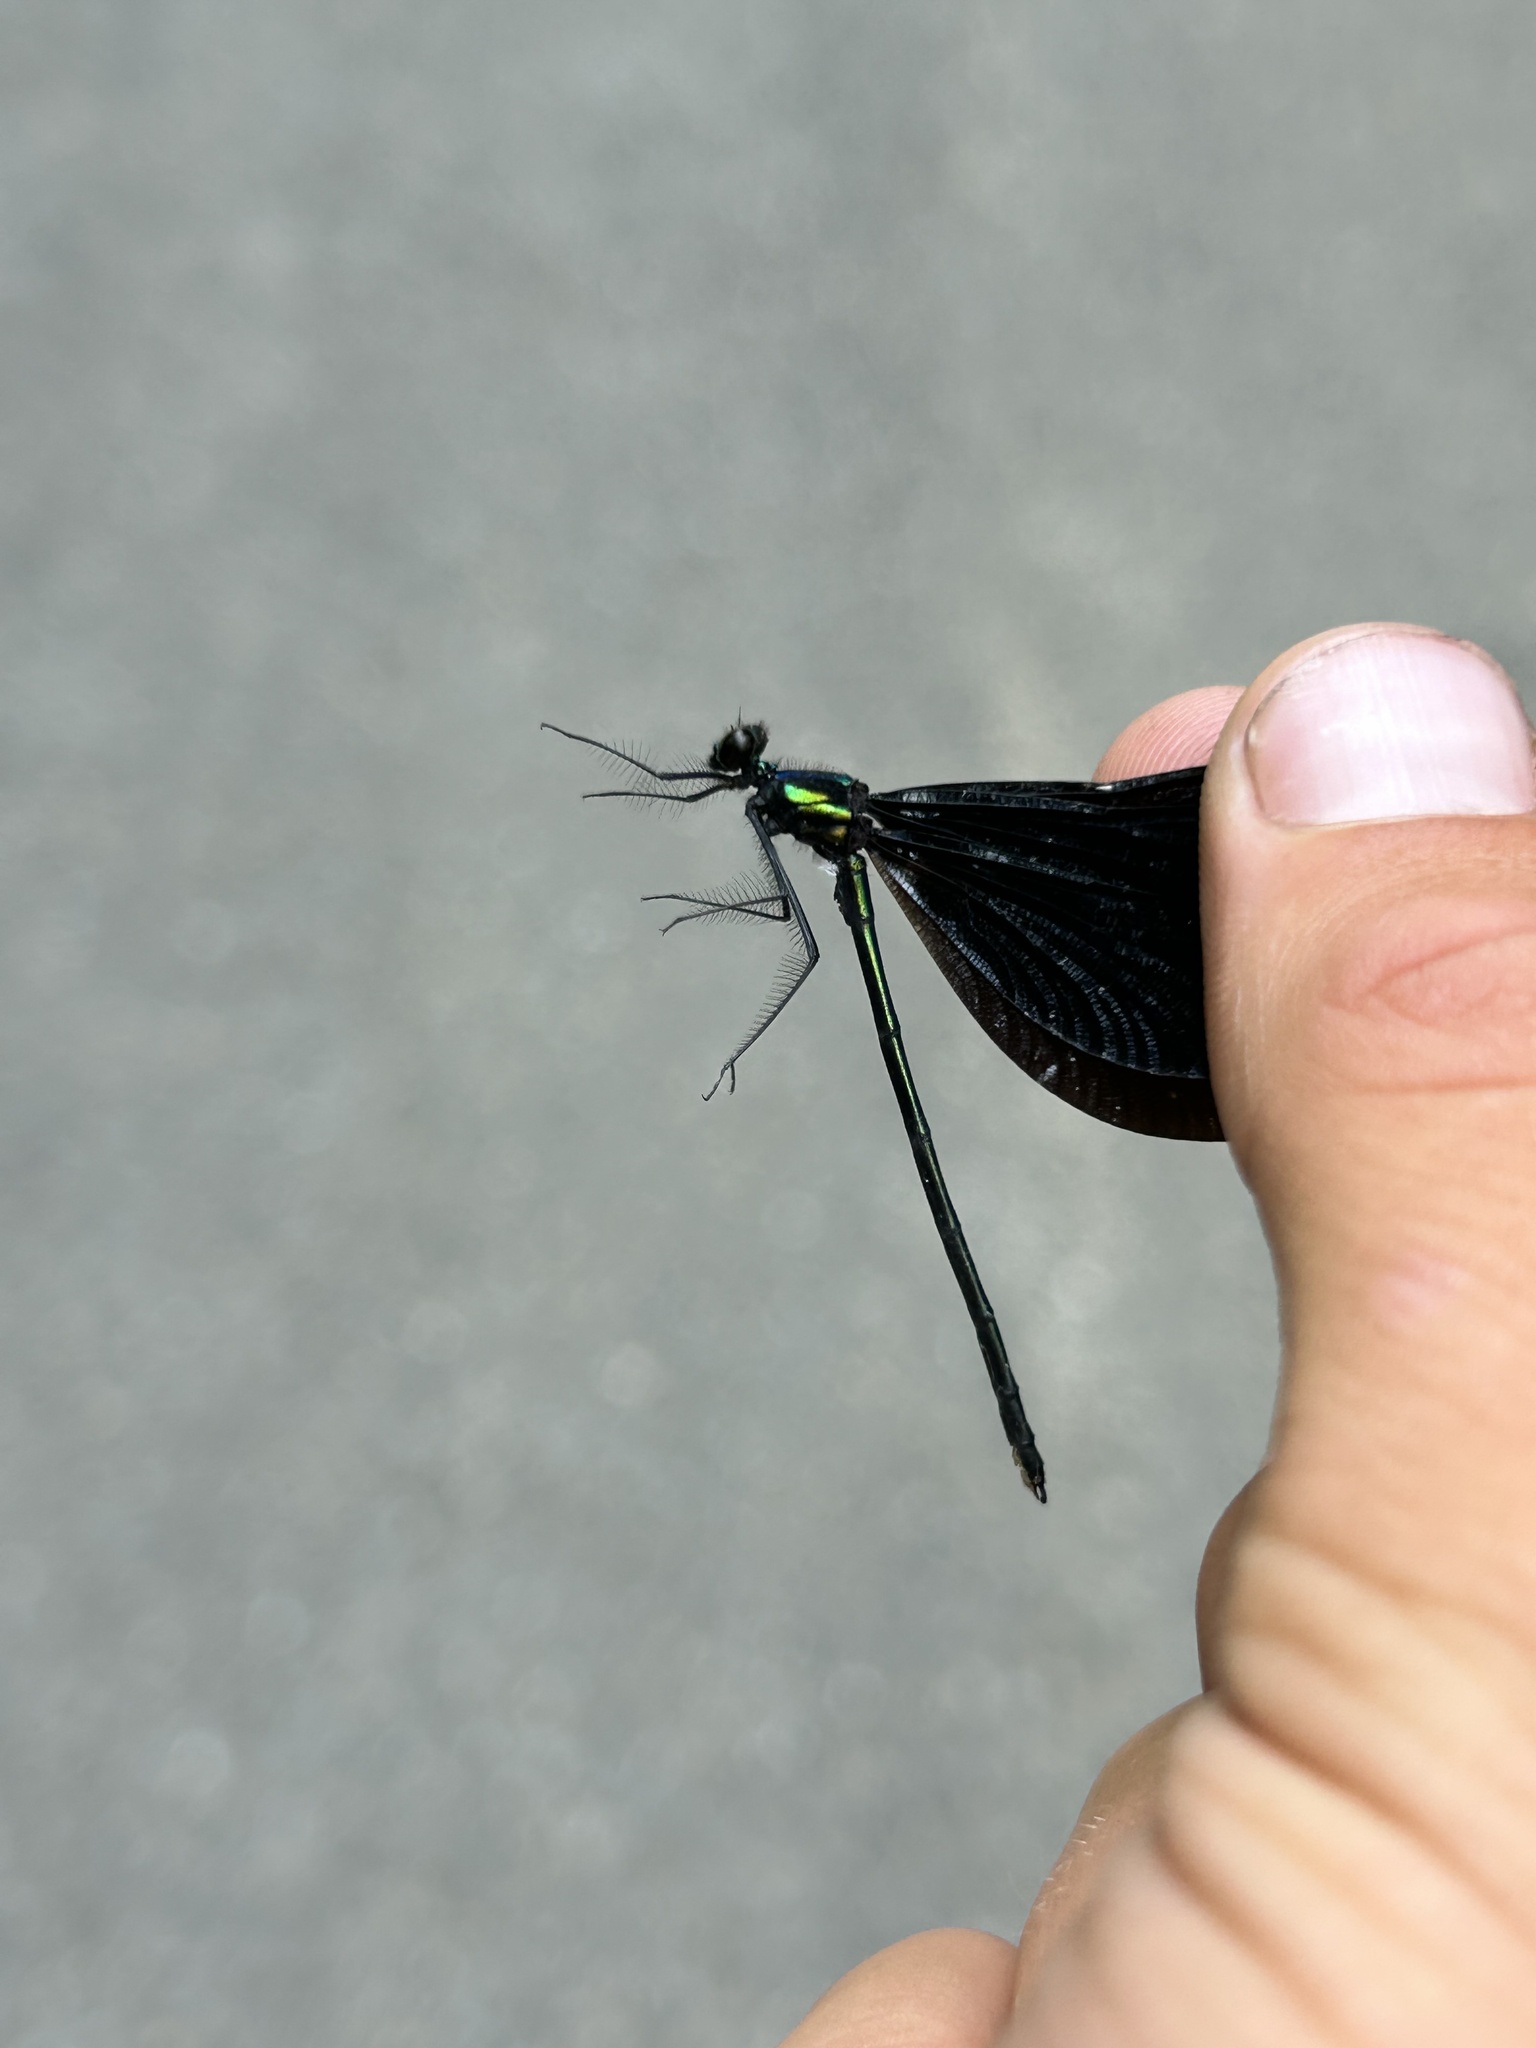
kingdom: Animalia
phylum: Arthropoda
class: Insecta
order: Odonata
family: Calopterygidae
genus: Calopteryx
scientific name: Calopteryx maculata
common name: Ebony jewelwing
